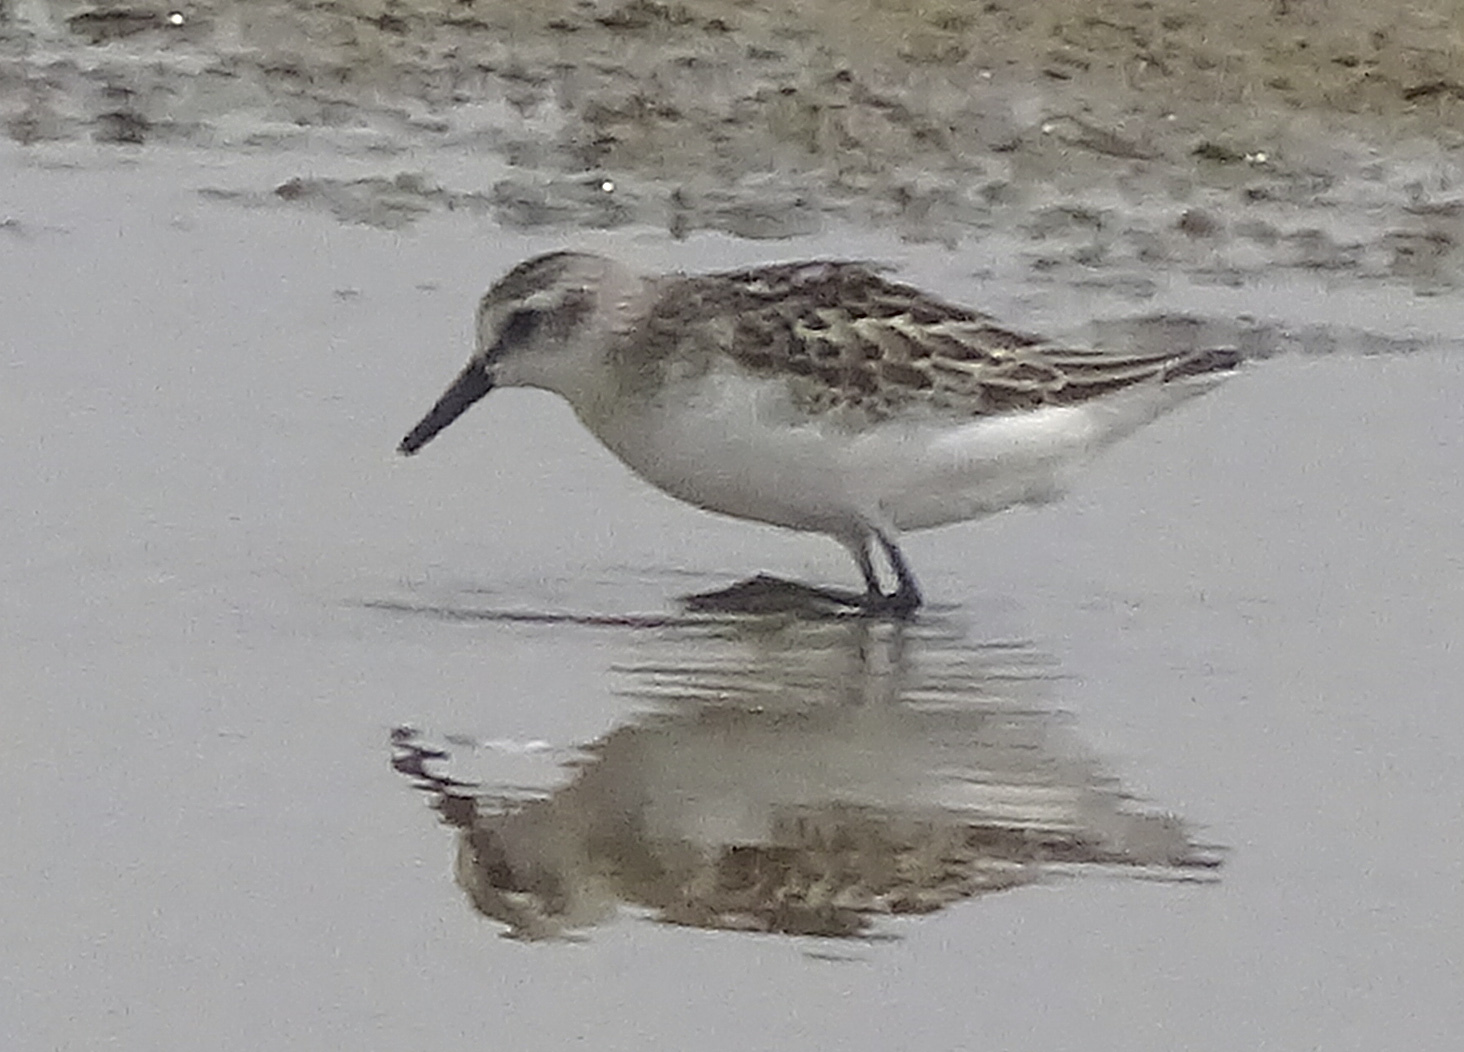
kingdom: Animalia
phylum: Chordata
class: Aves
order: Charadriiformes
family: Scolopacidae
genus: Calidris
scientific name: Calidris pusilla
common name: Semipalmated sandpiper
